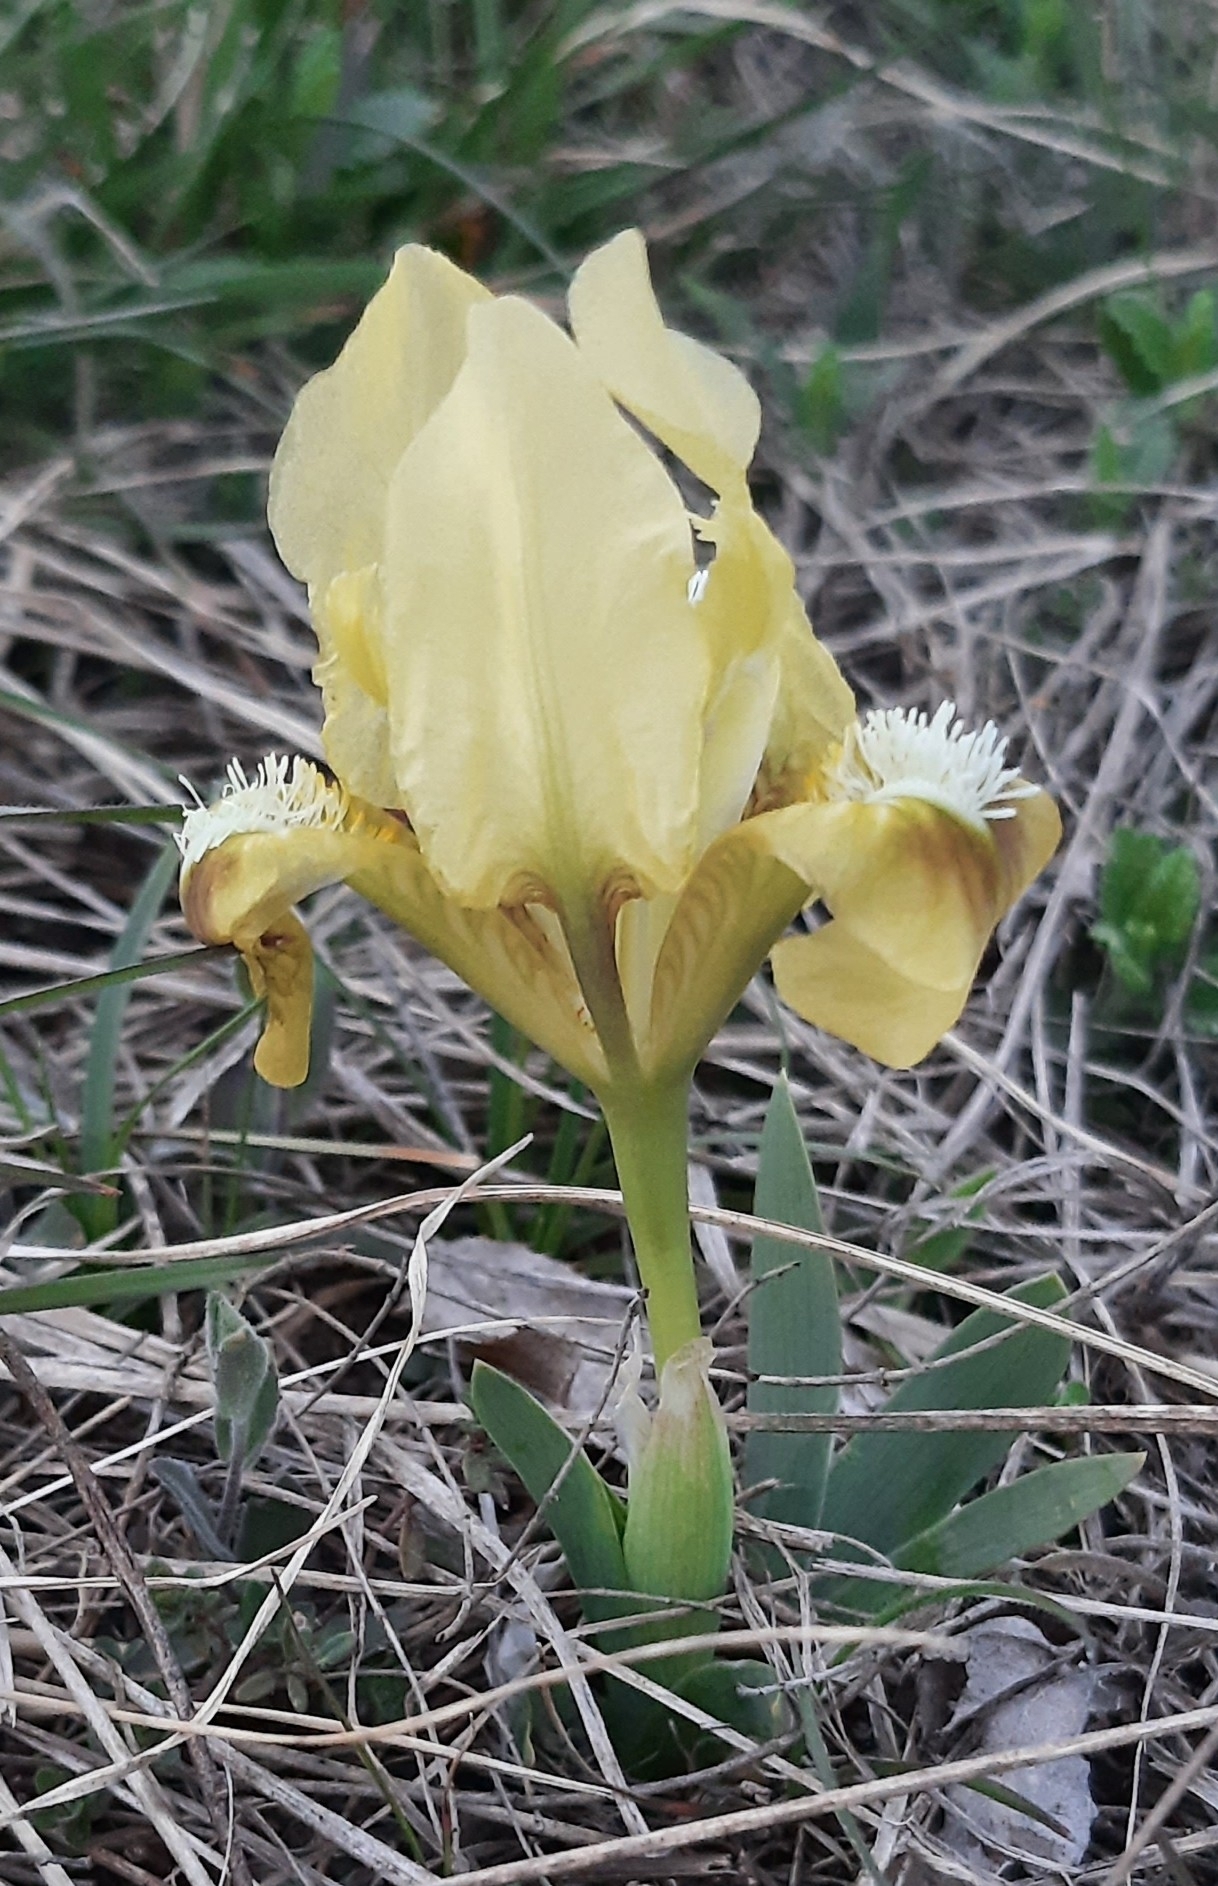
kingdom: Plantae
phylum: Tracheophyta
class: Liliopsida
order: Asparagales
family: Iridaceae
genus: Iris
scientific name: Iris pumila
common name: Dwarf iris
